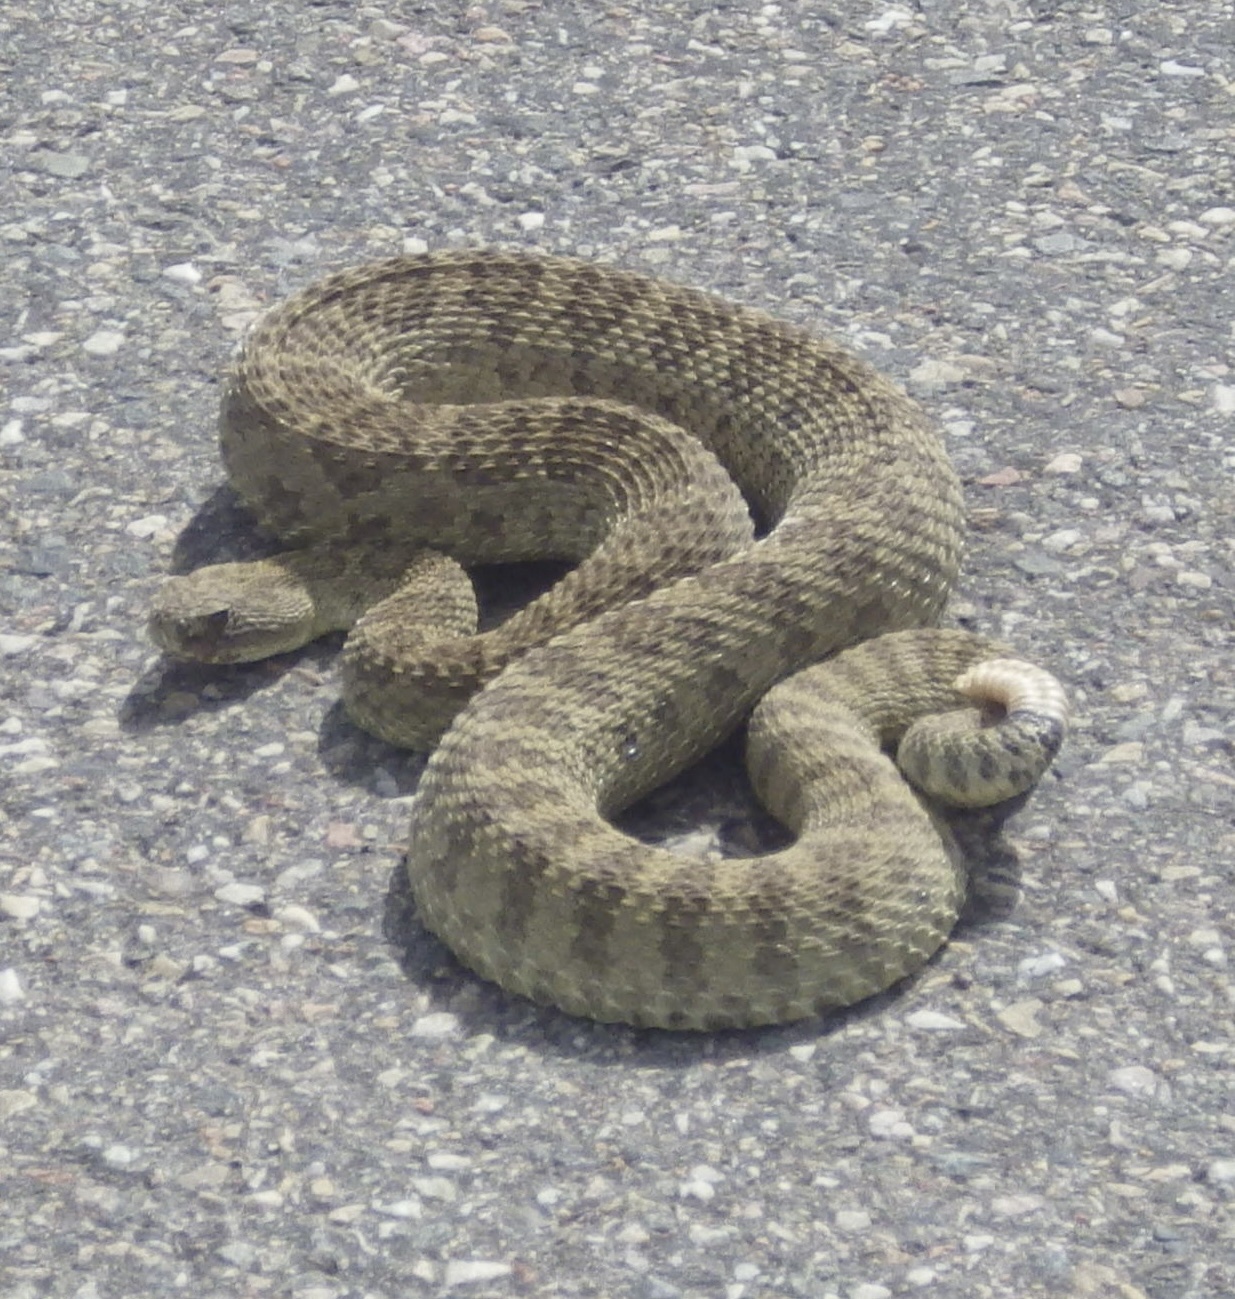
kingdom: Animalia
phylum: Chordata
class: Squamata
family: Viperidae
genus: Crotalus
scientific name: Crotalus viridis
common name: Prairie rattlesnake
